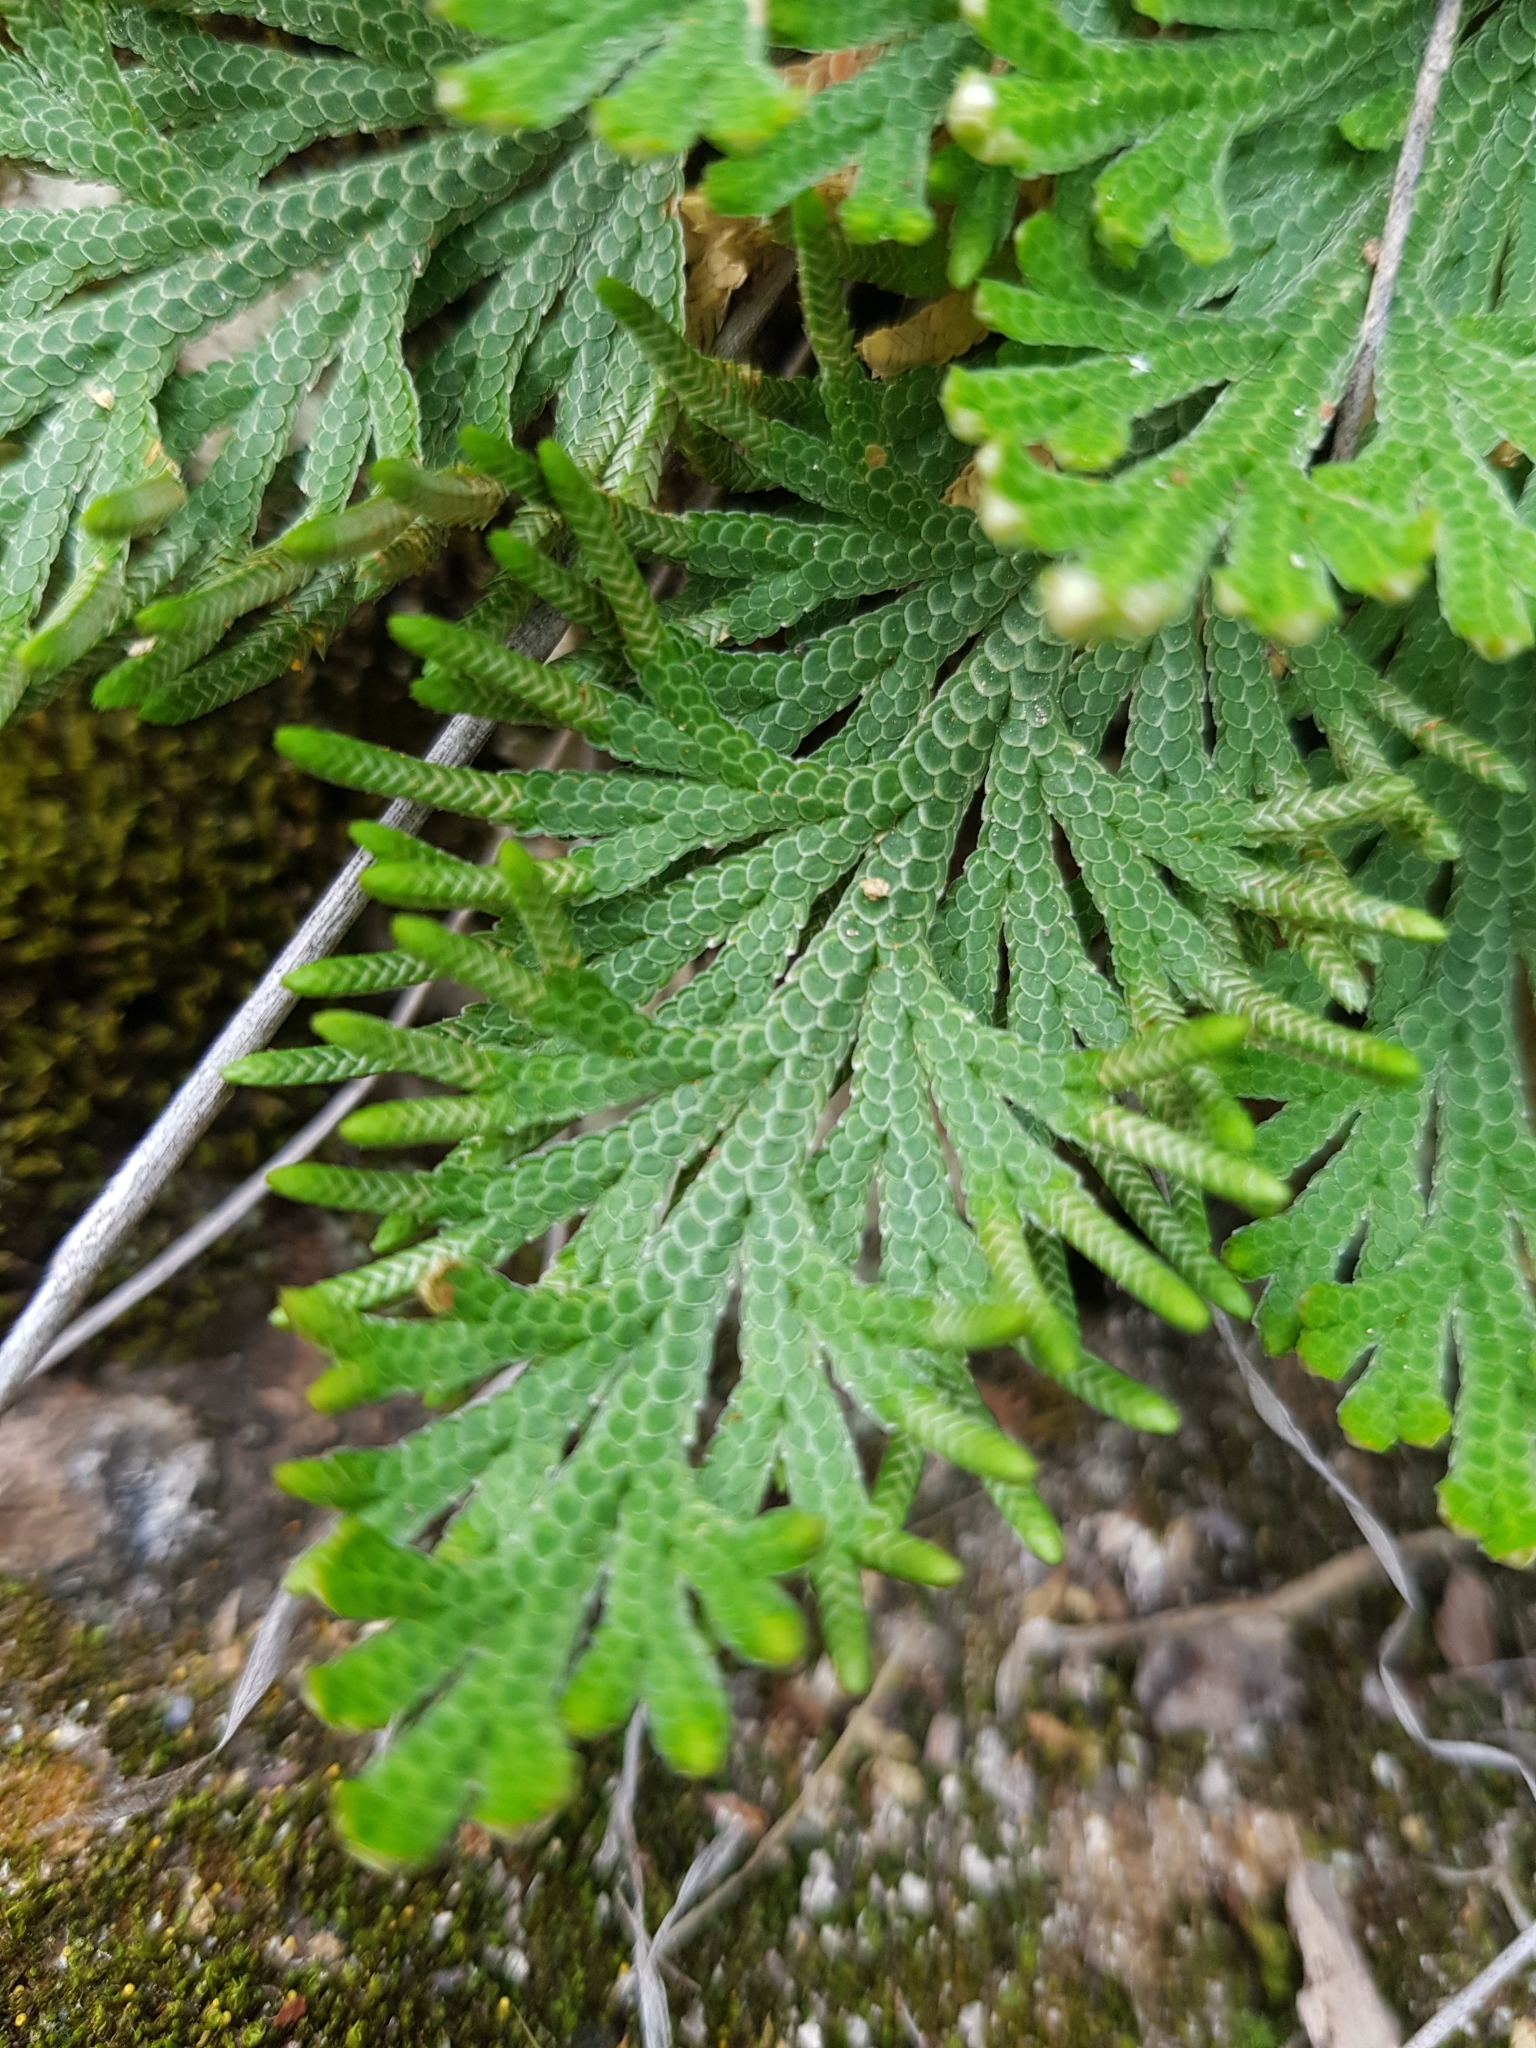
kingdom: Plantae
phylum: Tracheophyta
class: Lycopodiopsida
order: Selaginellales
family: Selaginellaceae
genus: Selaginella
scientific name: Selaginella lepidophylla
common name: Rose-of-jericho
